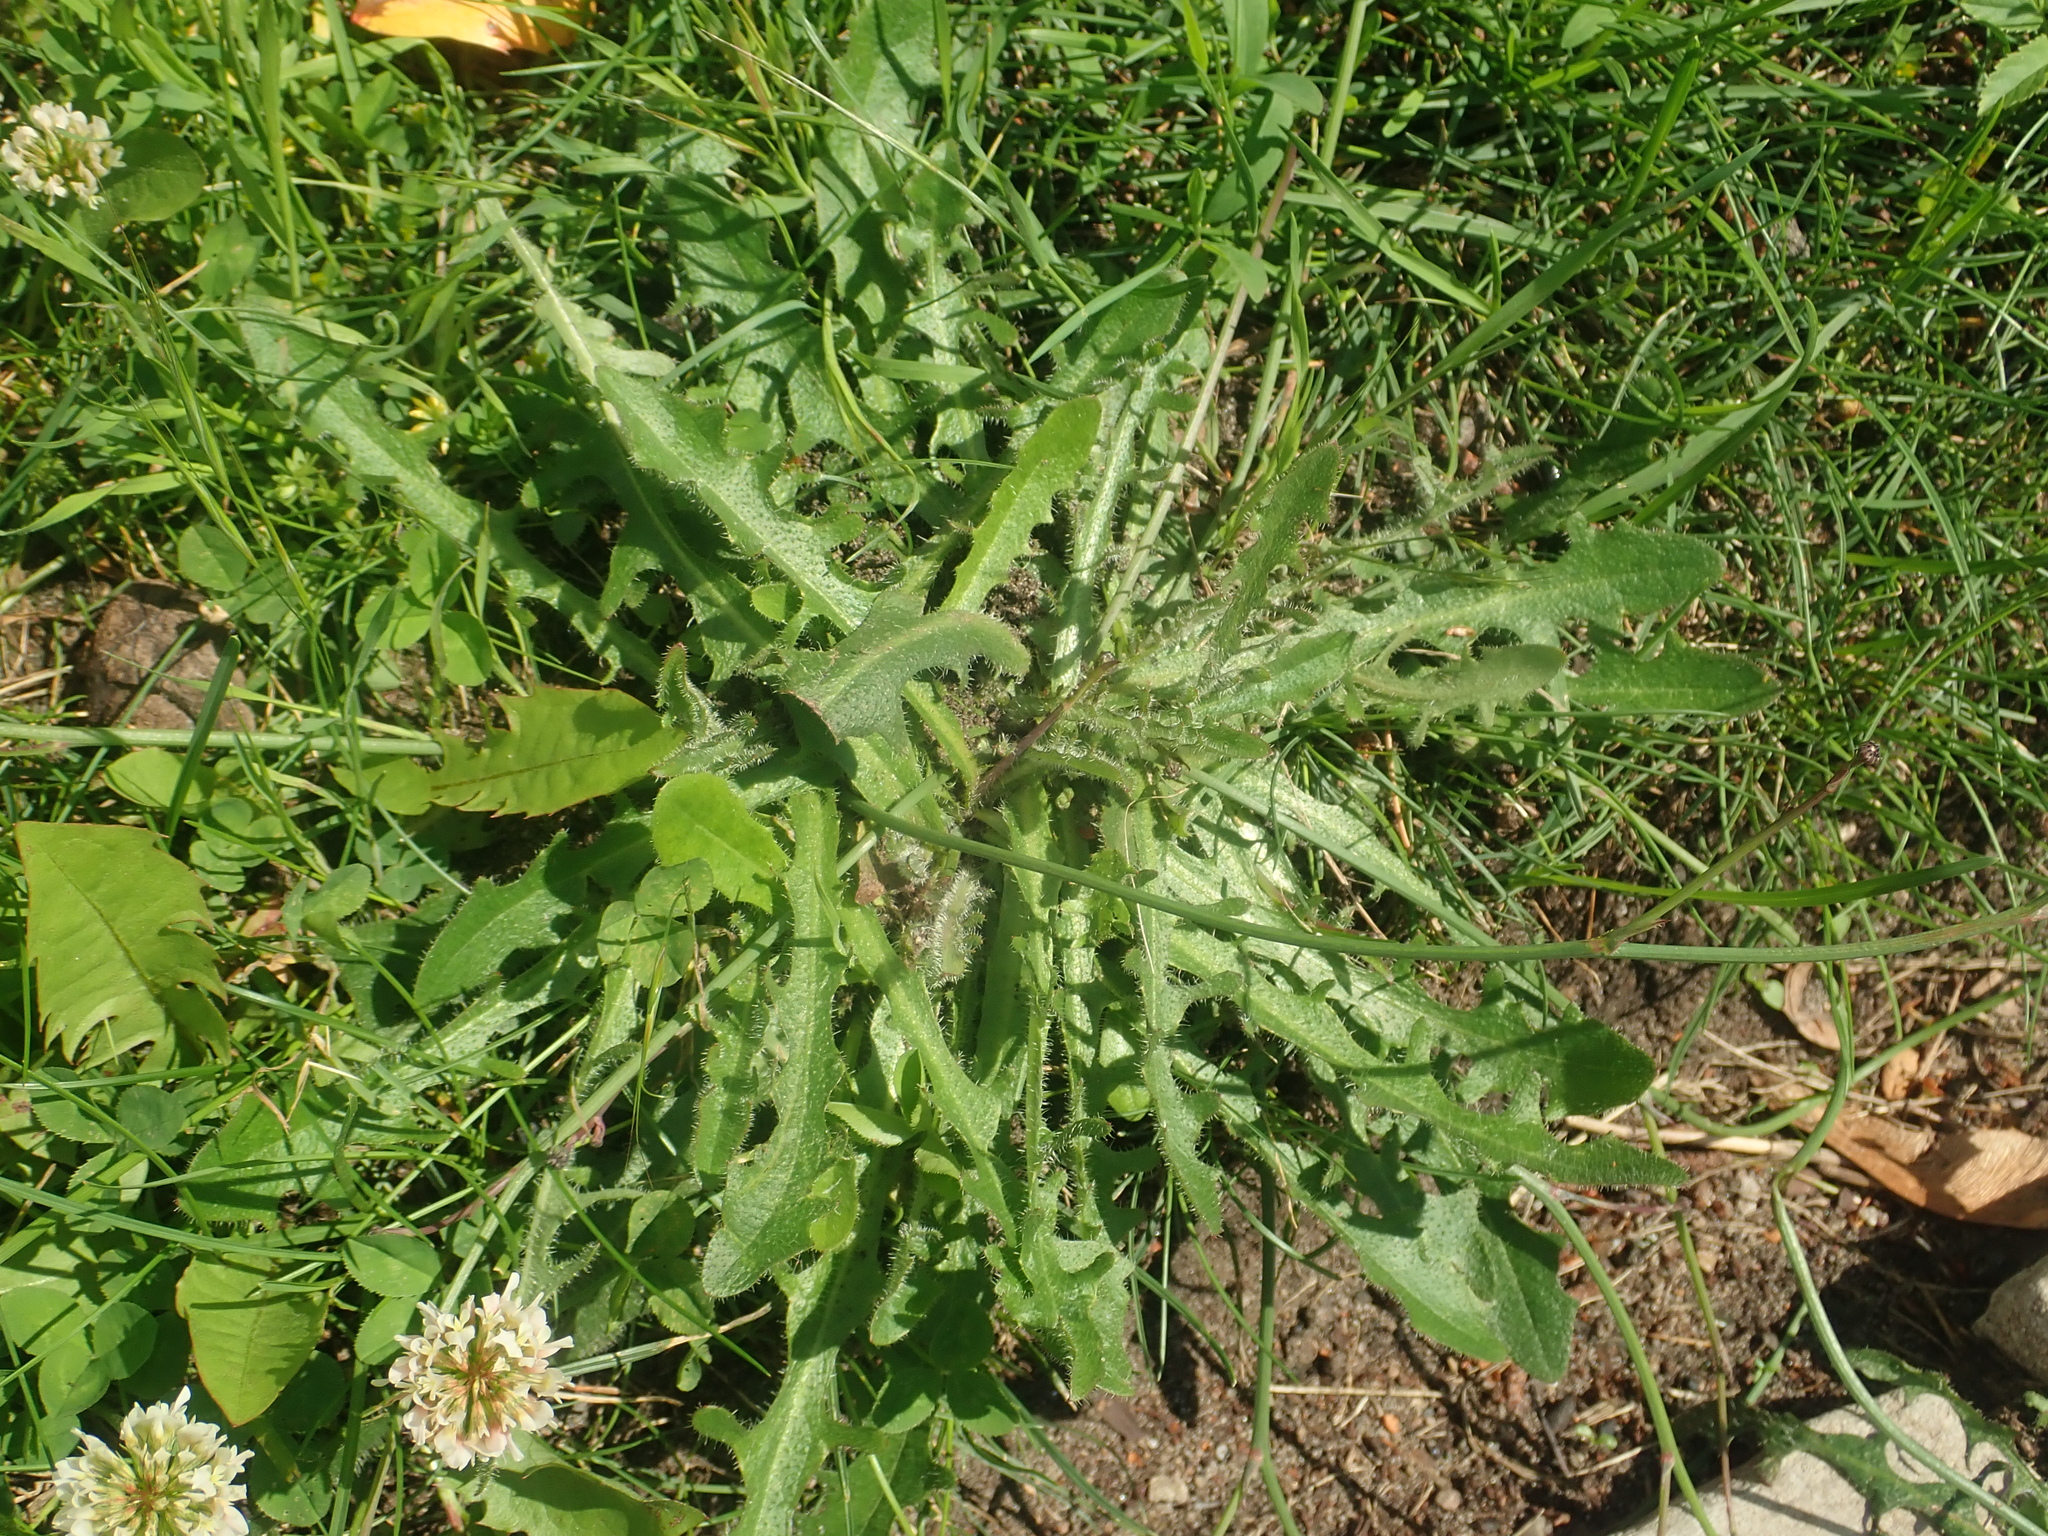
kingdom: Plantae
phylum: Tracheophyta
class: Magnoliopsida
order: Asterales
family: Asteraceae
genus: Hypochaeris
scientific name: Hypochaeris radicata
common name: Flatweed
